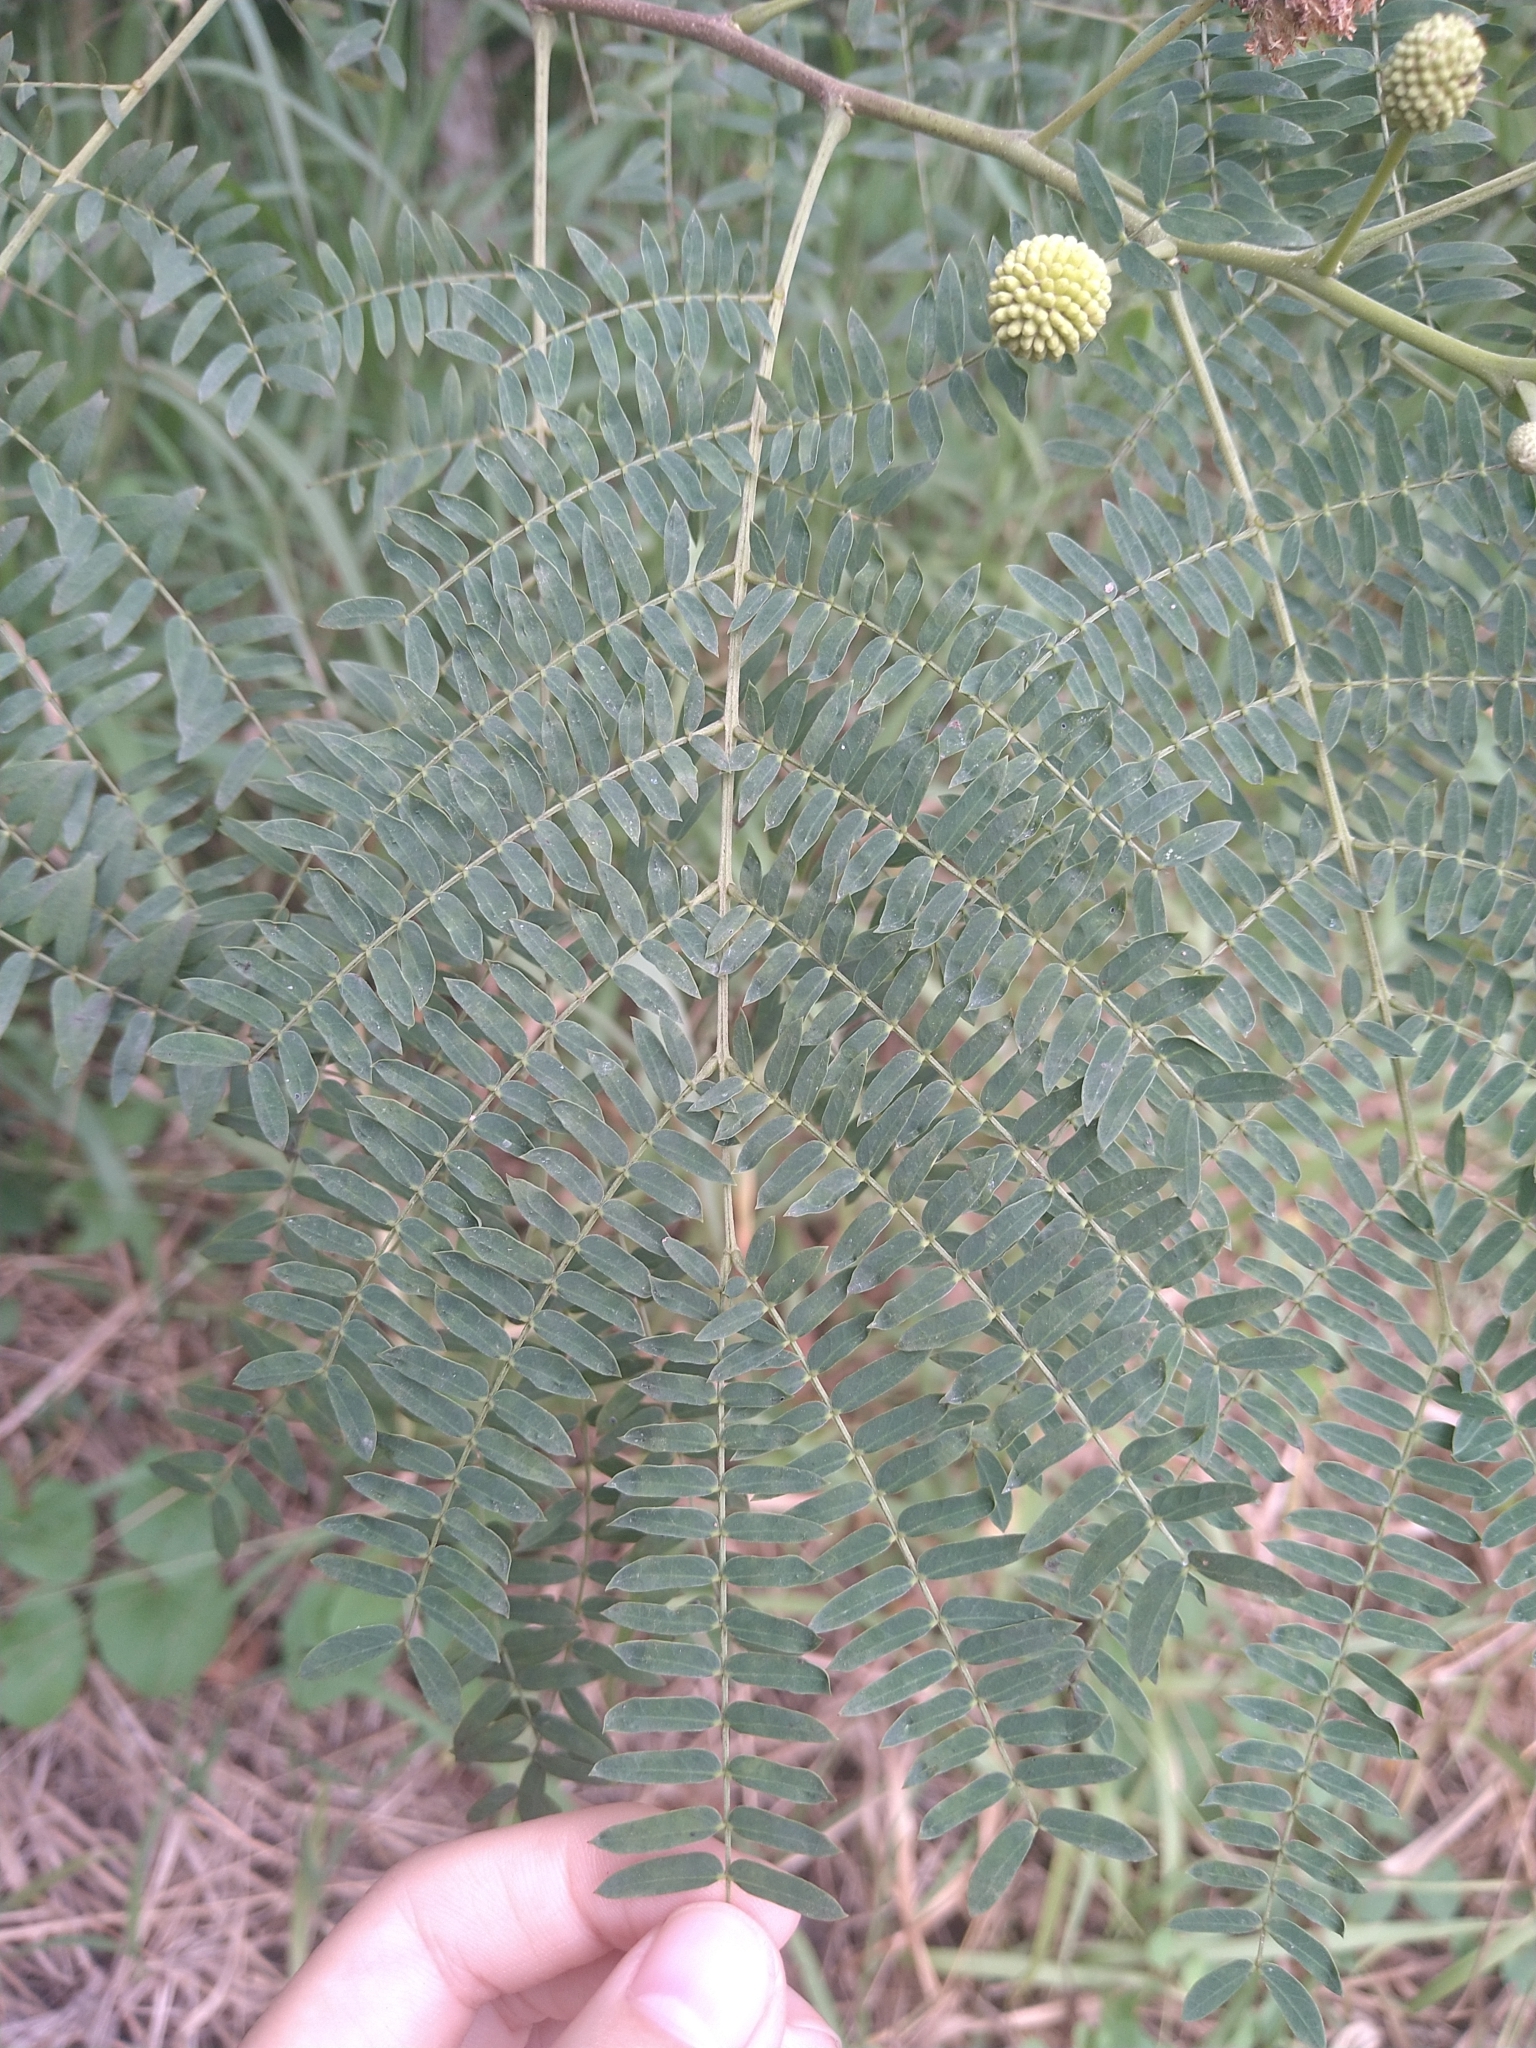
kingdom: Plantae
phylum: Tracheophyta
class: Magnoliopsida
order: Fabales
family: Fabaceae
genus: Leucaena
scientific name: Leucaena leucocephala
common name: White leadtree
